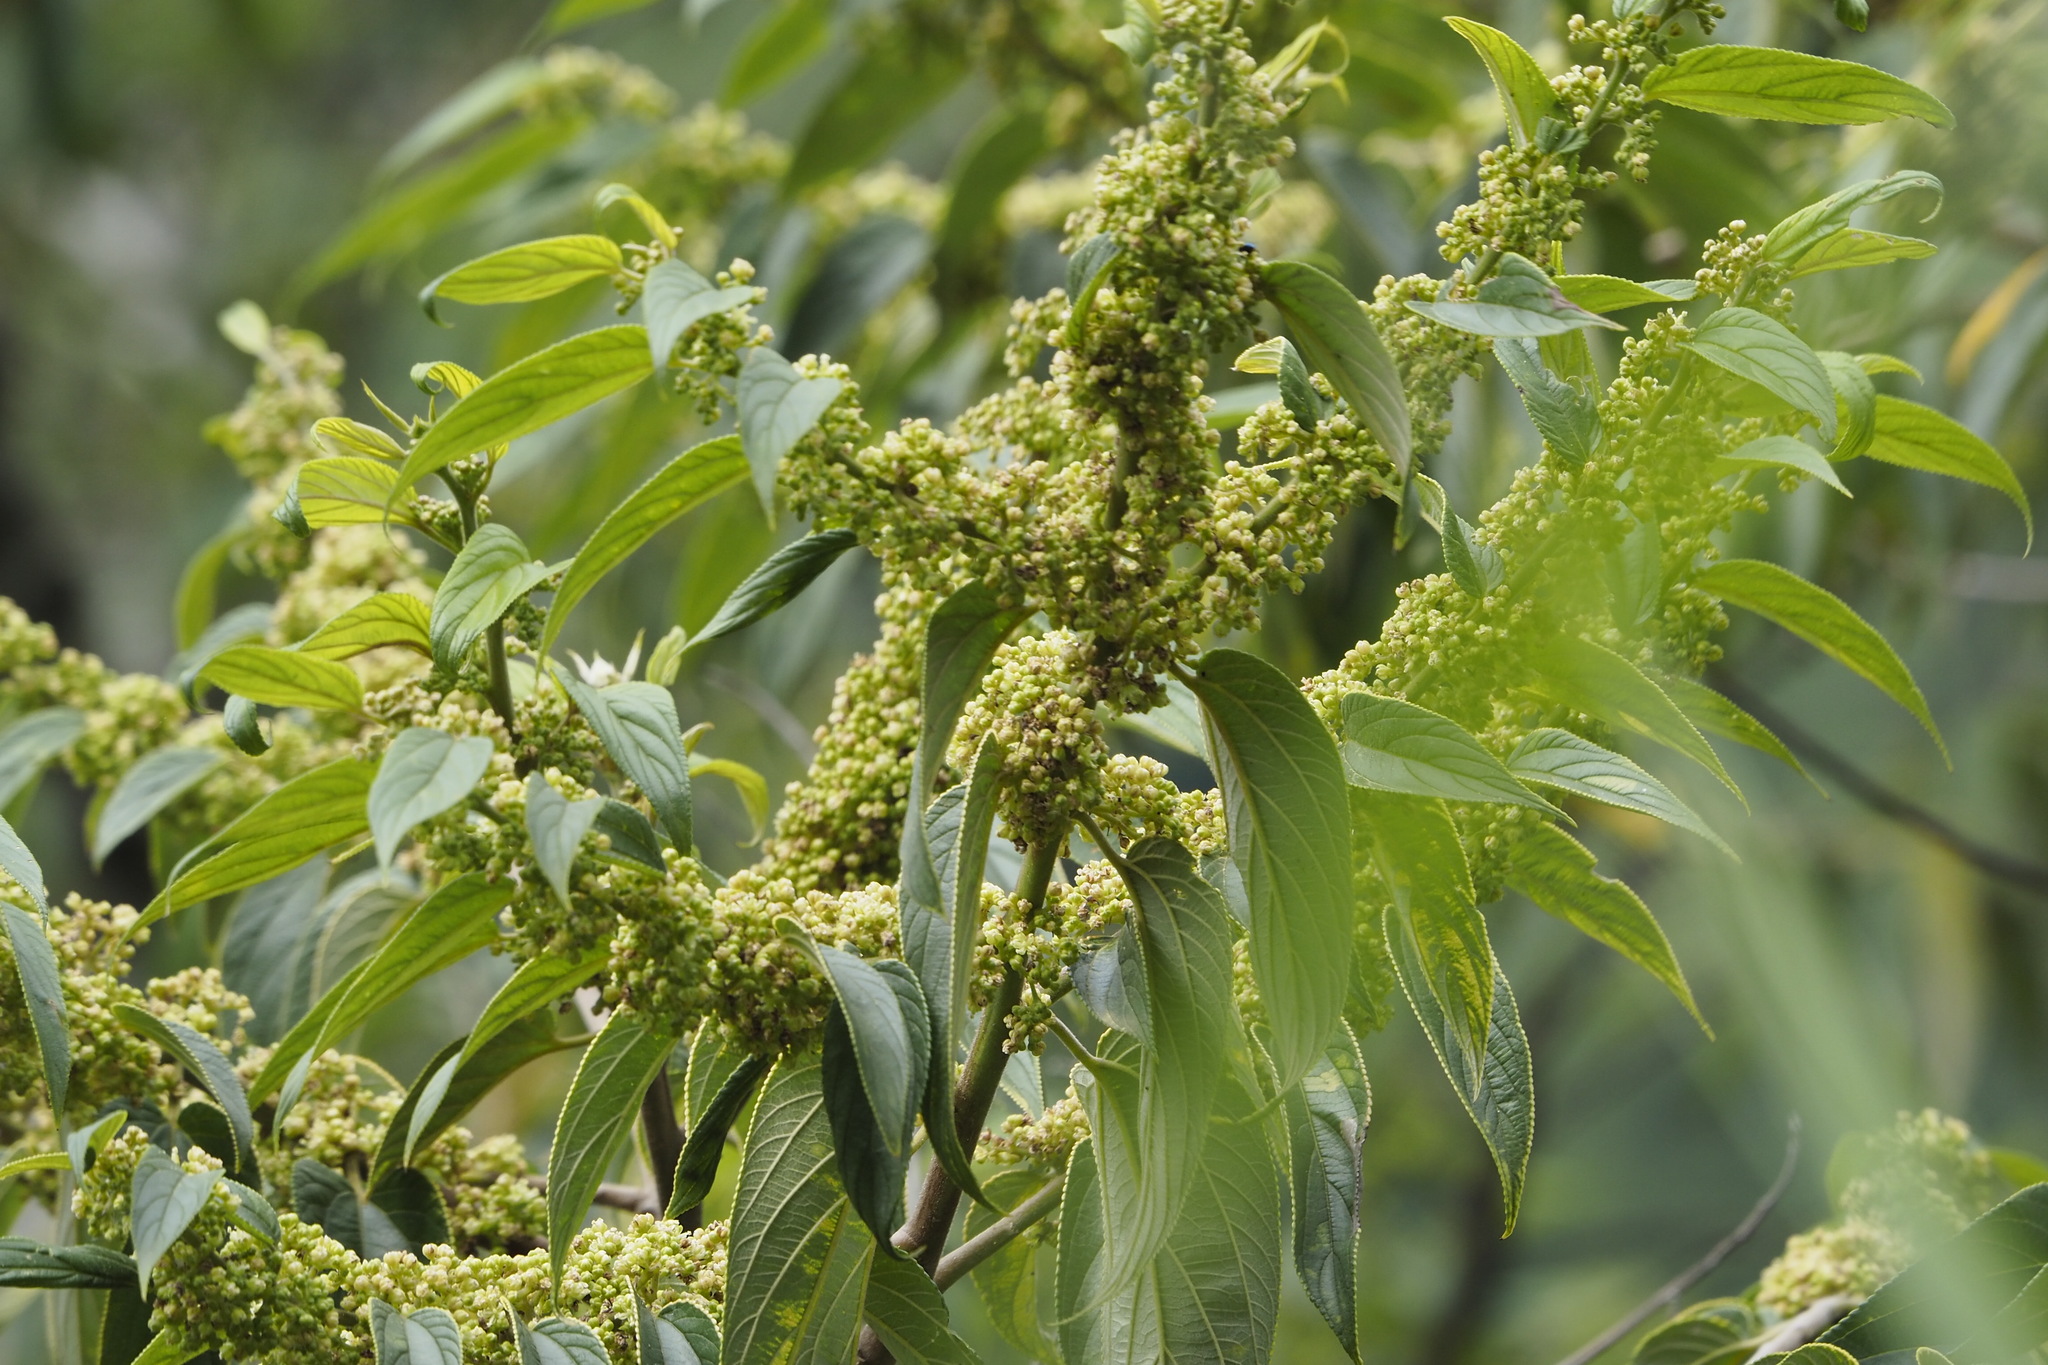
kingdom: Plantae
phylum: Tracheophyta
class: Magnoliopsida
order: Rosales
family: Cannabaceae
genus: Trema
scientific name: Trema orientale
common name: Indian charcoal tree
